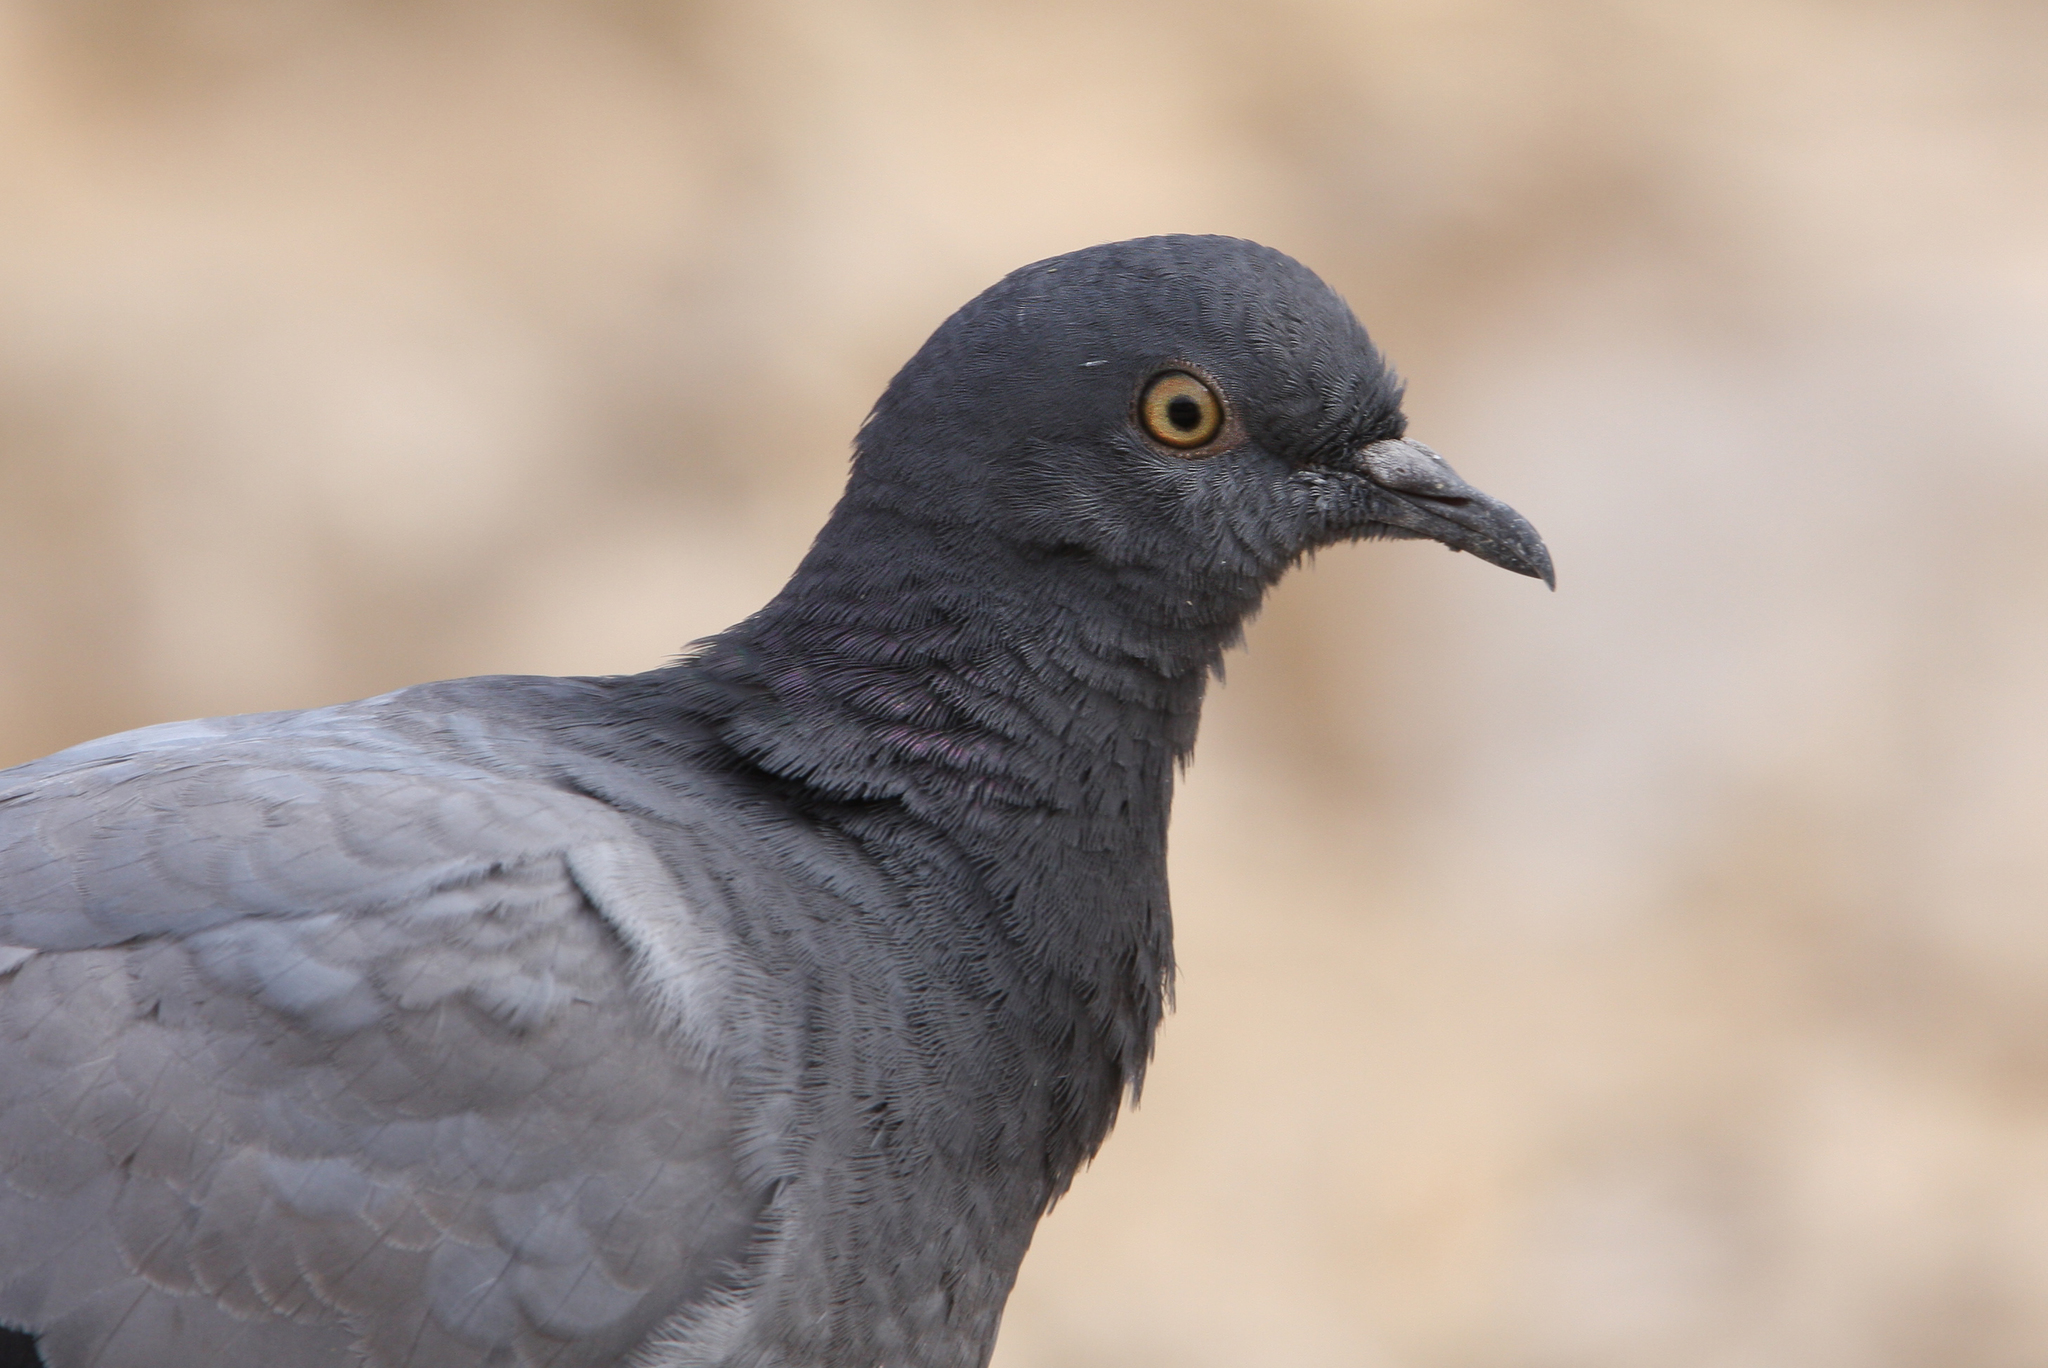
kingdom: Animalia
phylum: Chordata
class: Aves
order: Columbiformes
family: Columbidae
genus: Columba
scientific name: Columba livia
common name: Rock pigeon
